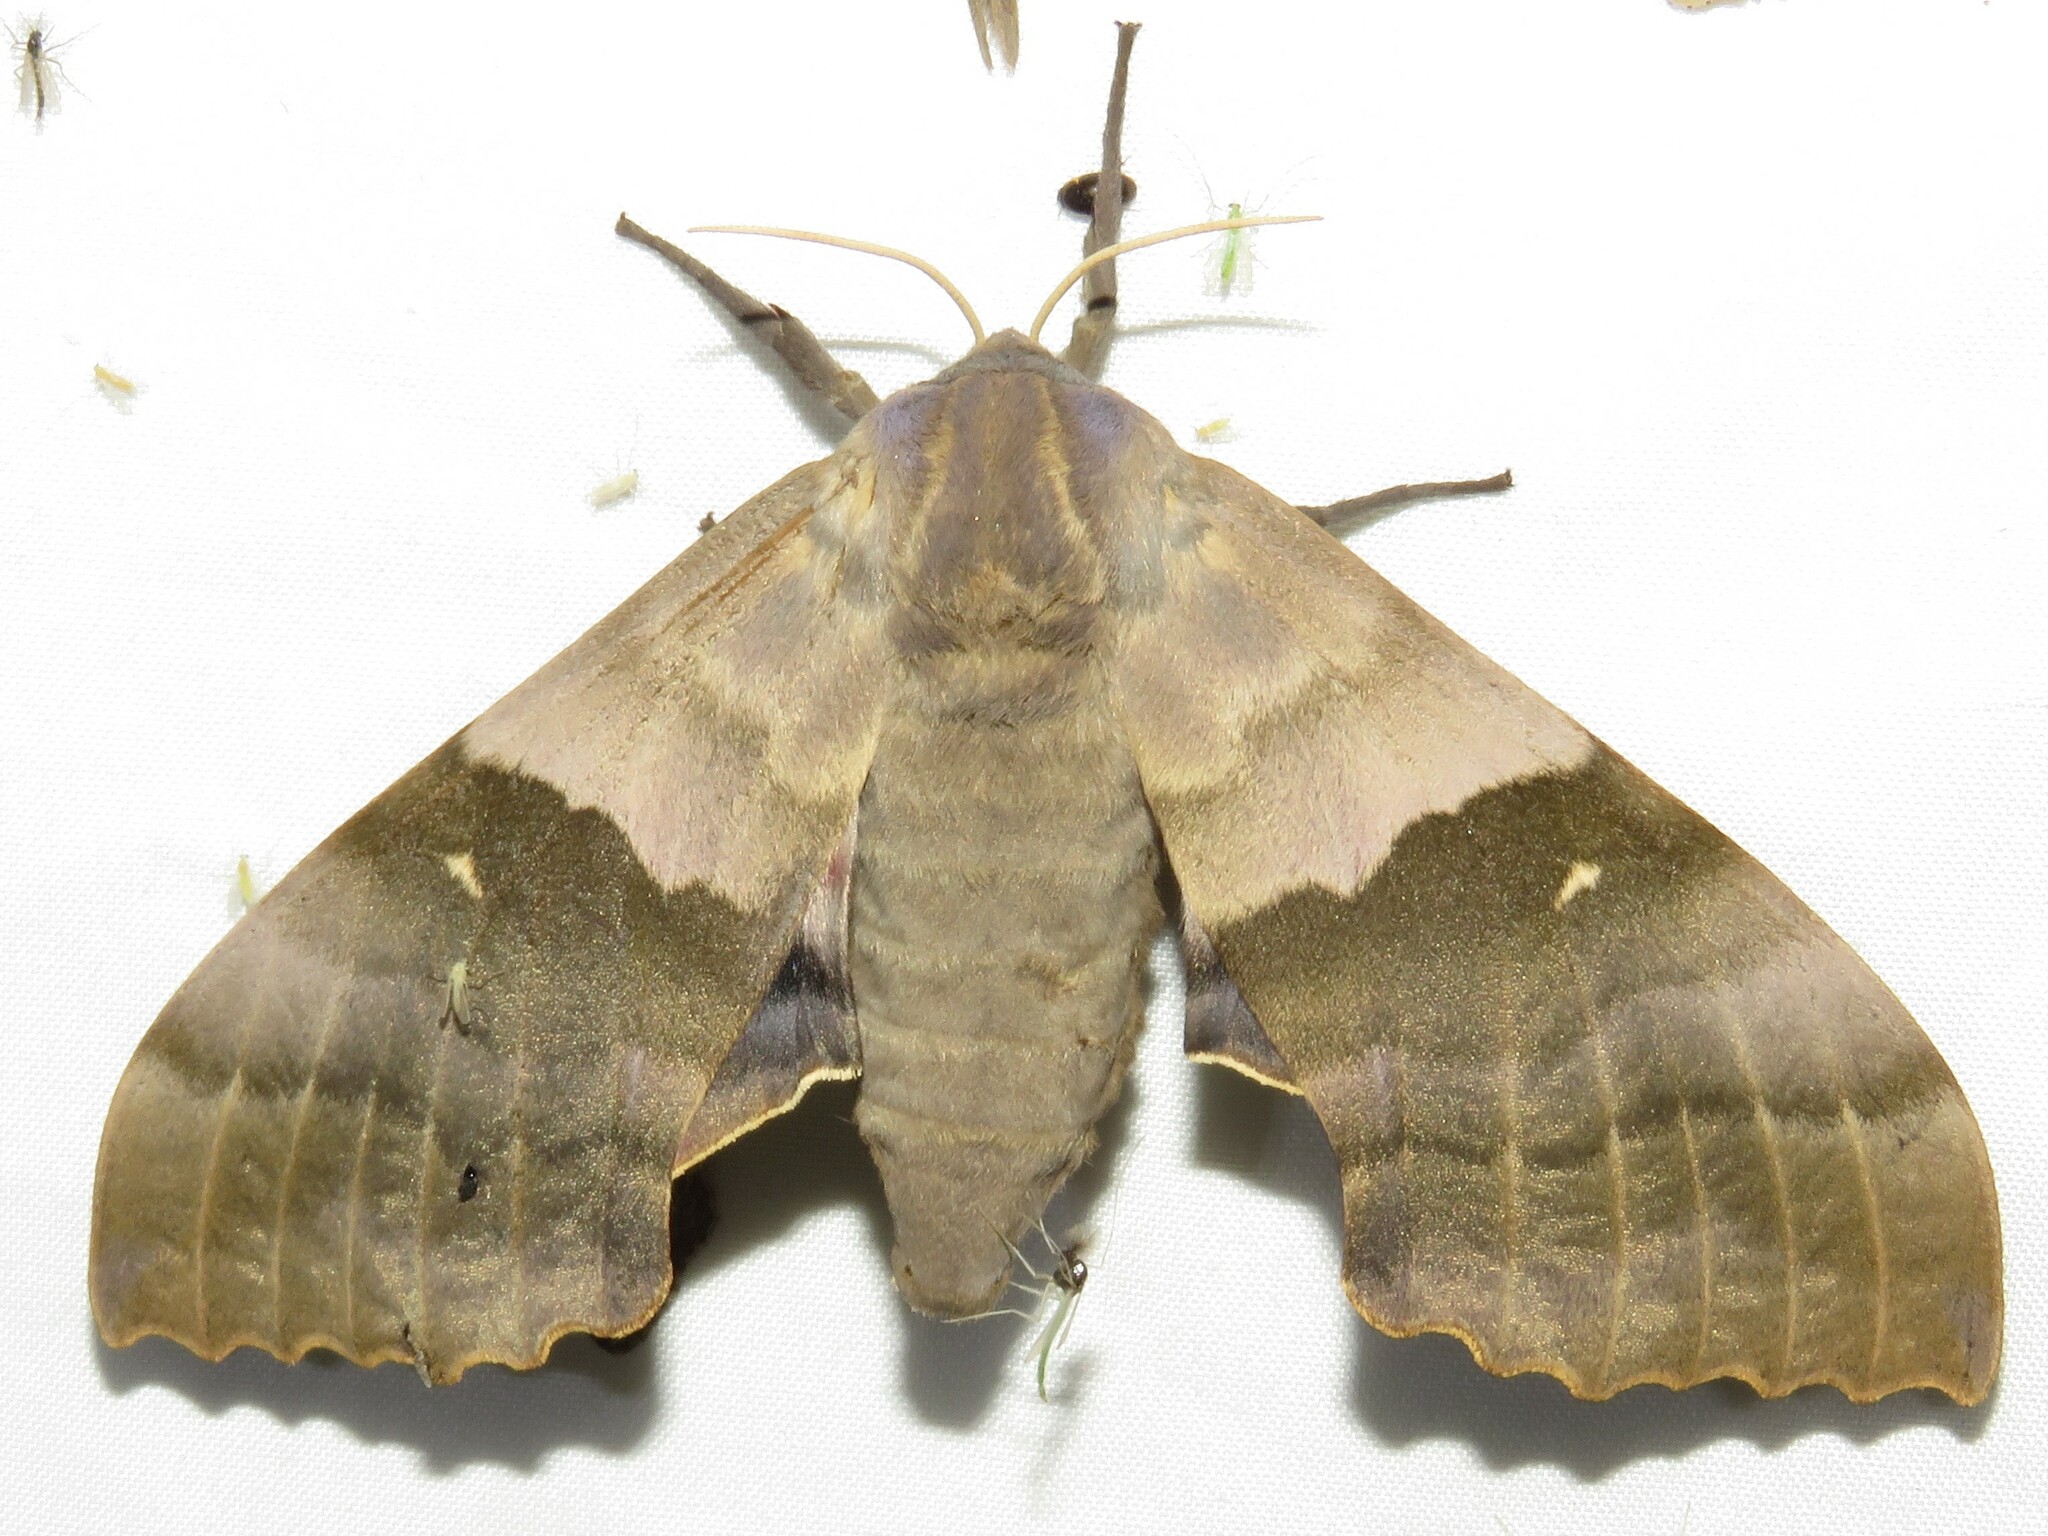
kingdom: Animalia
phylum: Arthropoda
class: Insecta
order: Lepidoptera
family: Sphingidae
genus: Pachysphinx
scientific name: Pachysphinx modesta
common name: Big poplar sphinx
